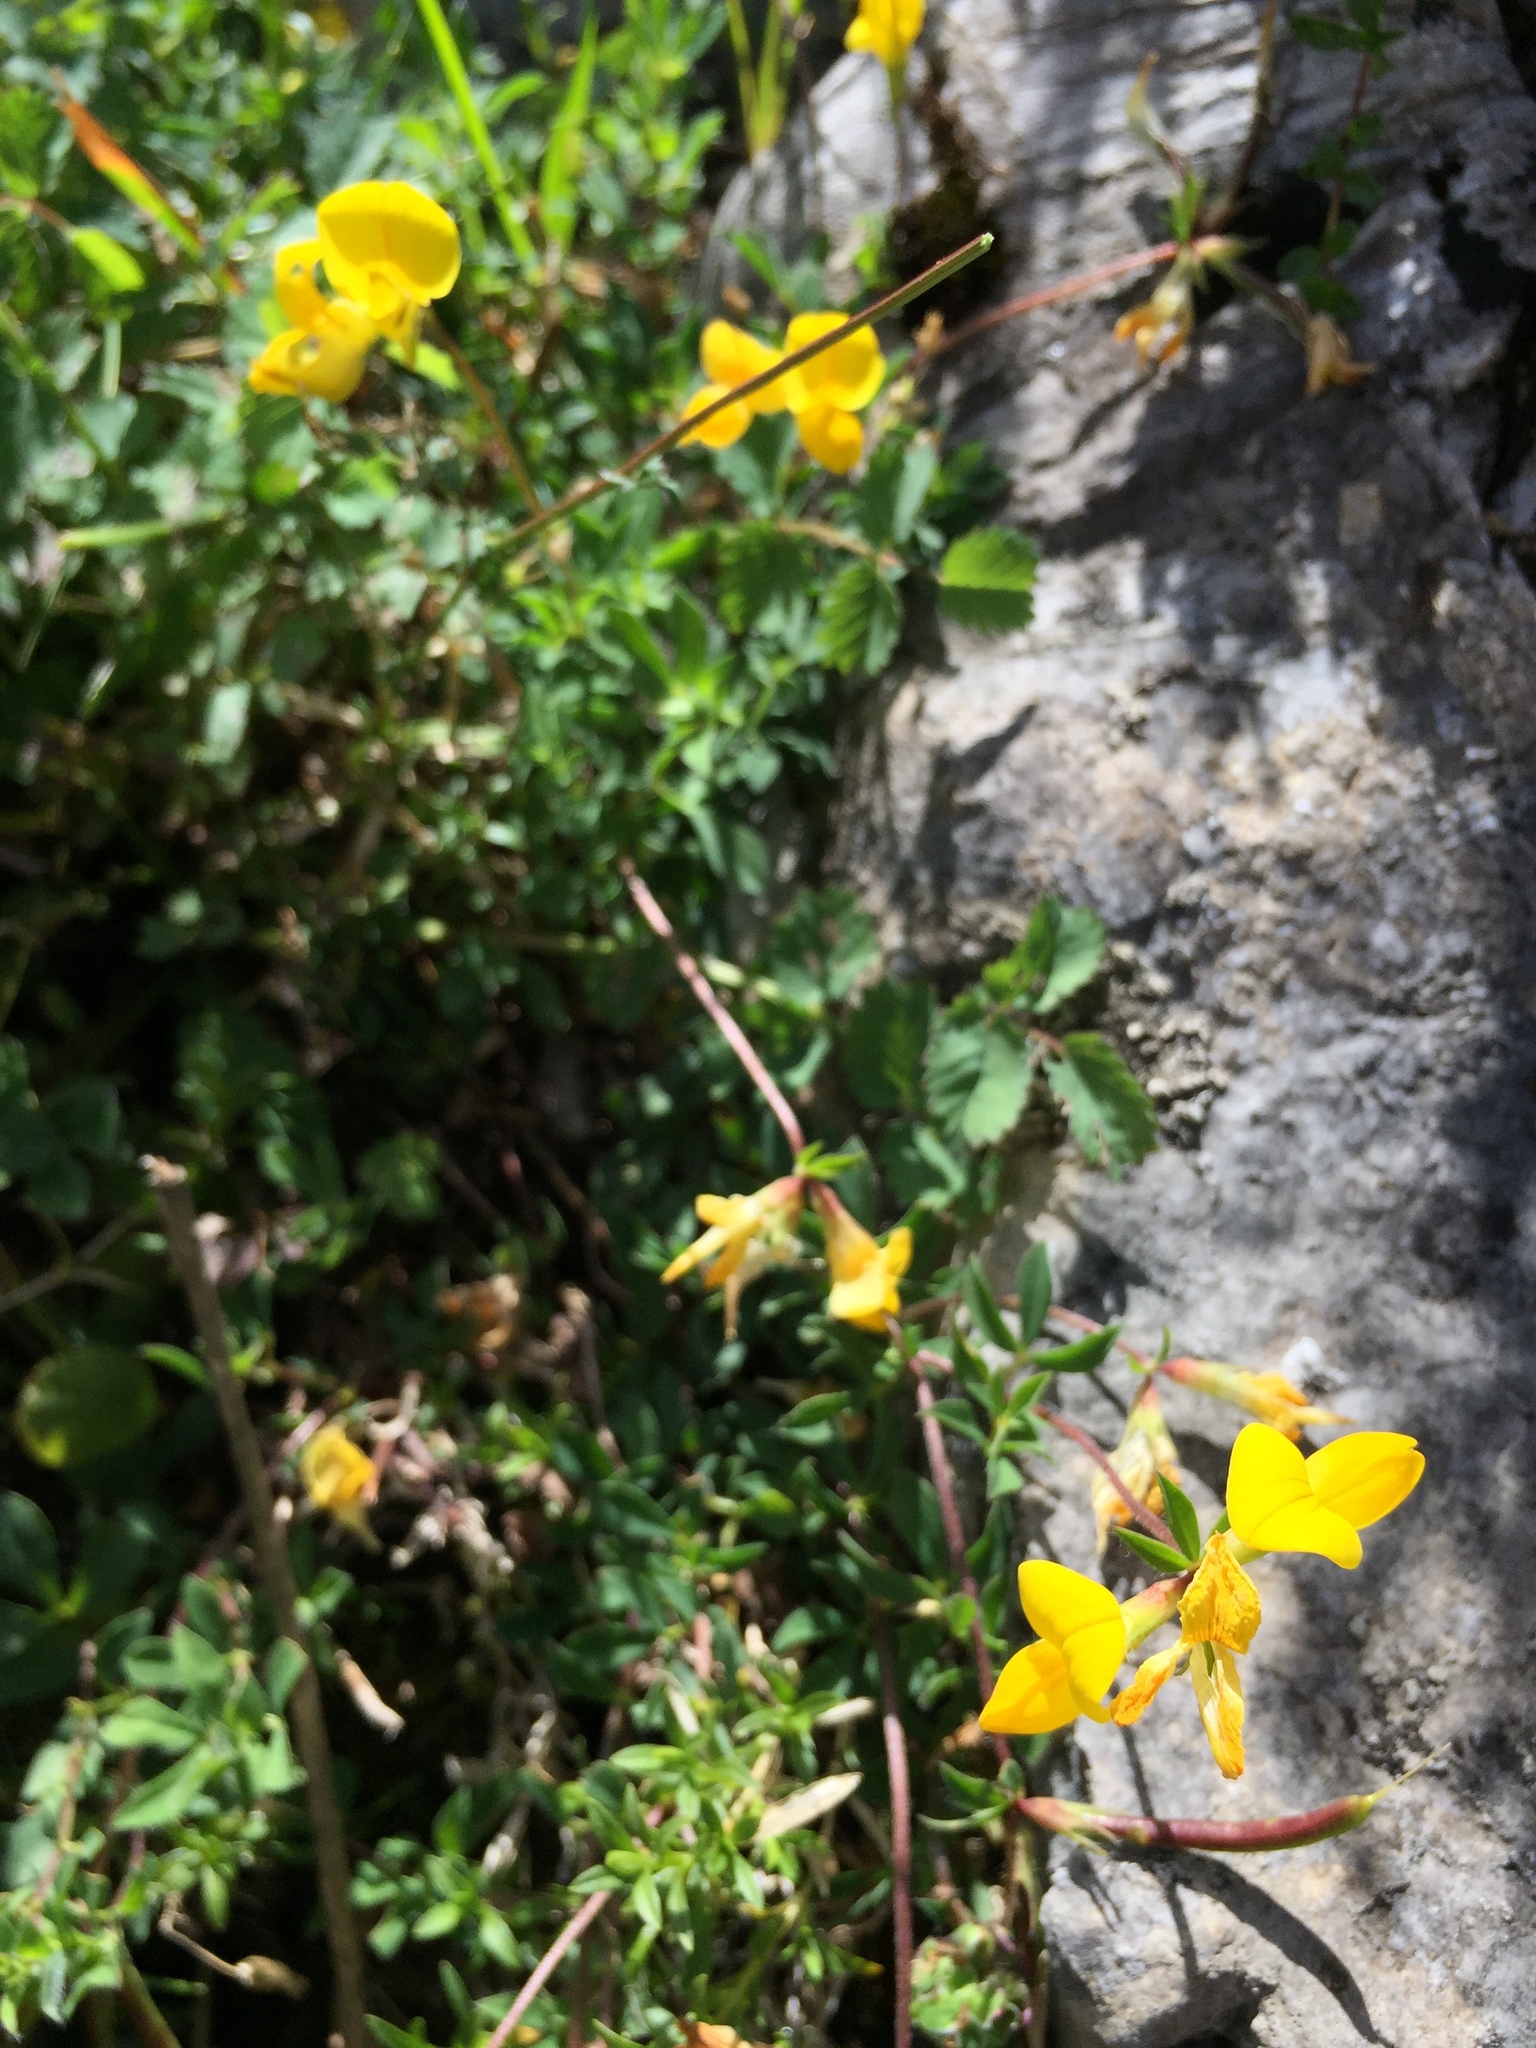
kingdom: Plantae
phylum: Tracheophyta
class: Magnoliopsida
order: Fabales
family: Fabaceae
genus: Lotus
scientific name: Lotus corniculatus
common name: Common bird's-foot-trefoil
